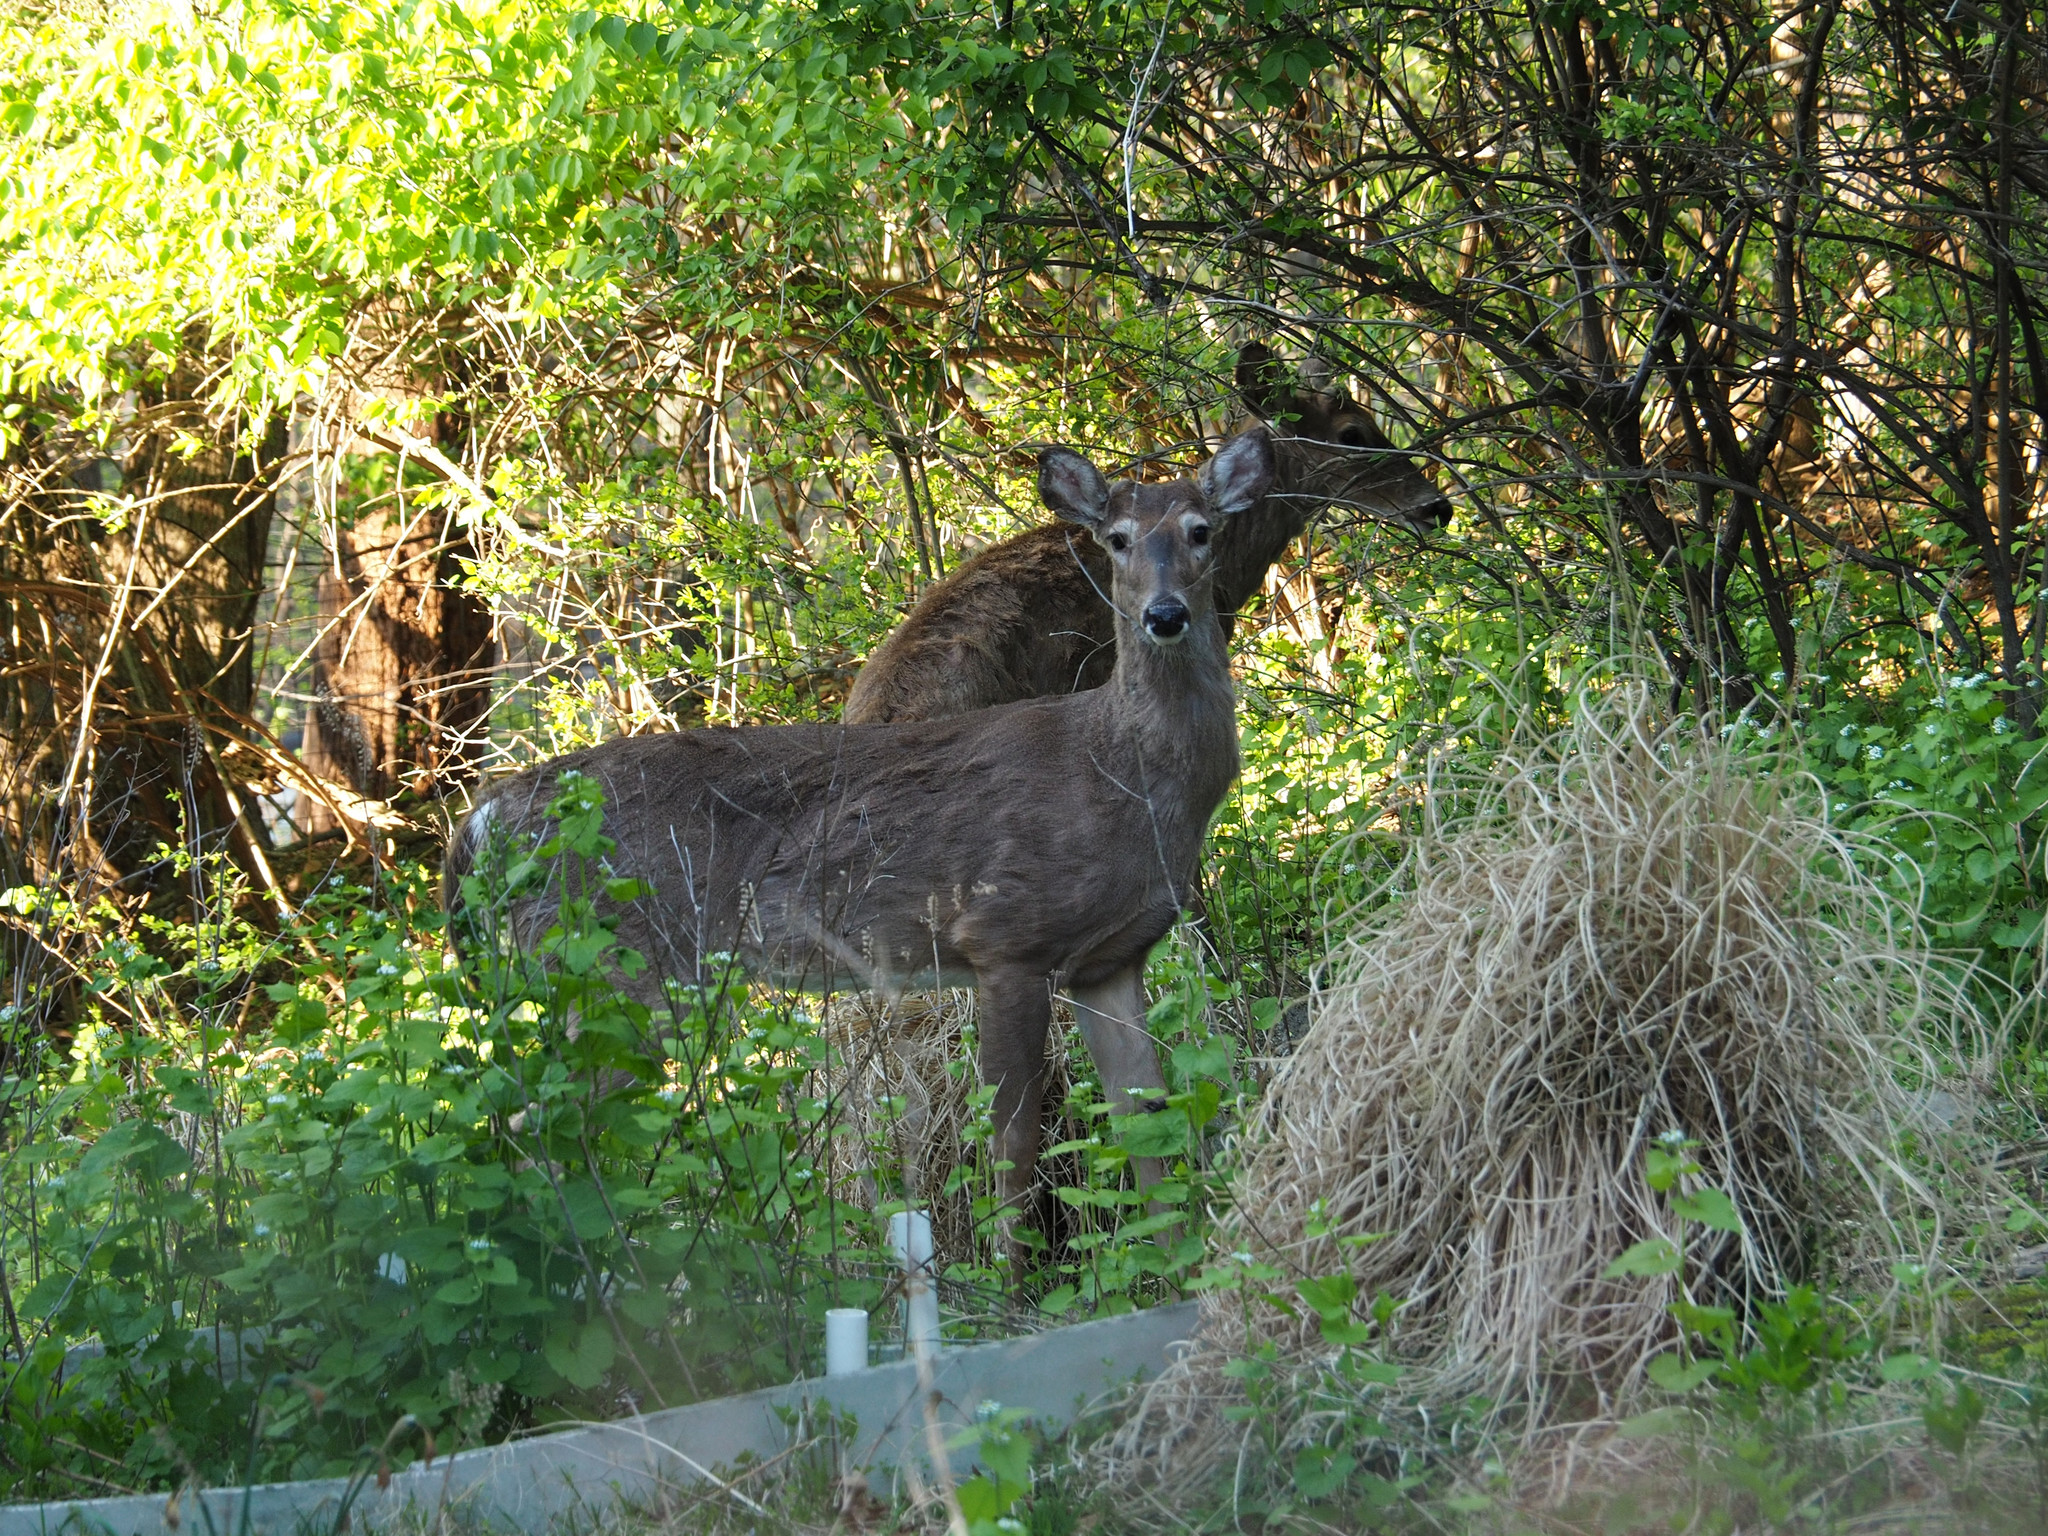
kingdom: Animalia
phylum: Chordata
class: Mammalia
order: Artiodactyla
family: Cervidae
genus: Odocoileus
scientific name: Odocoileus virginianus
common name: White-tailed deer
